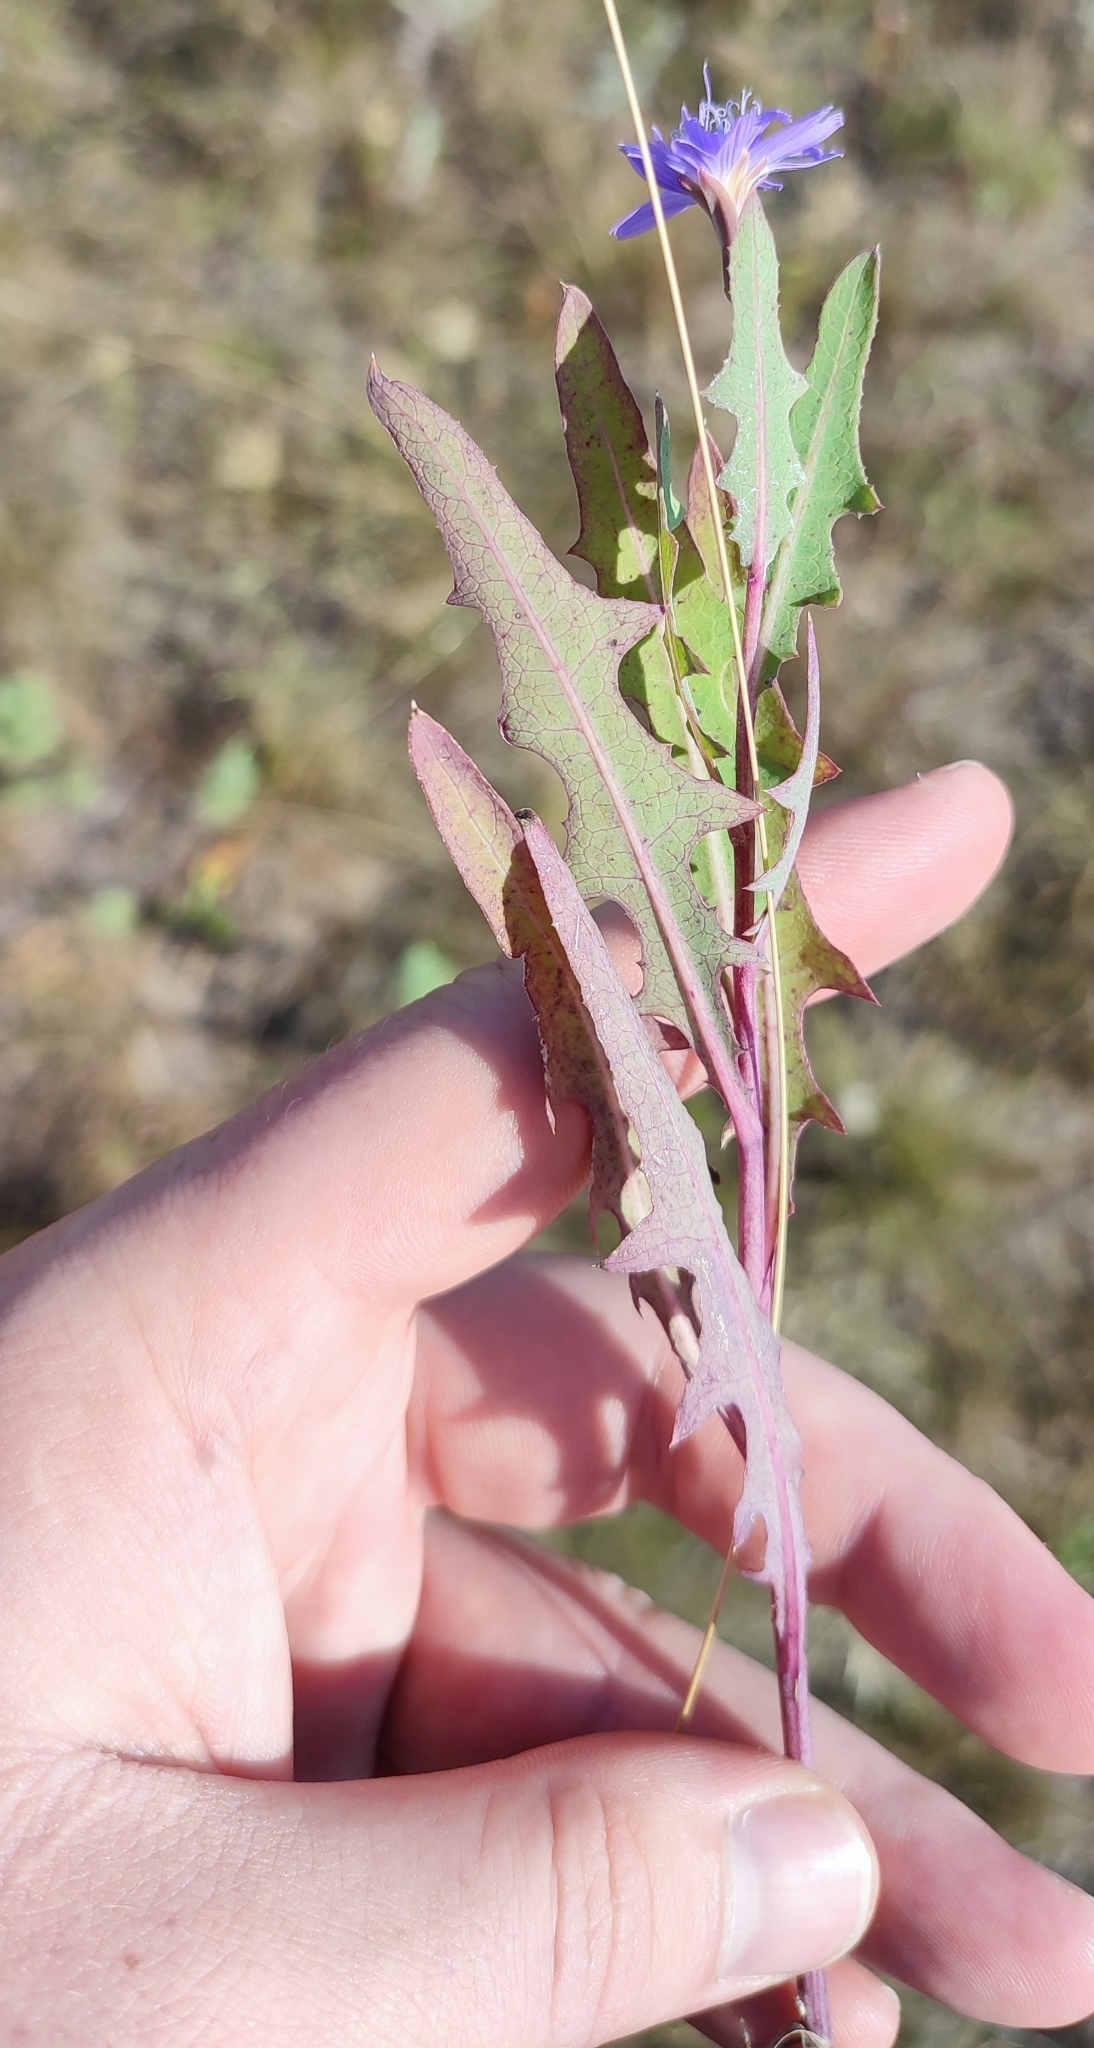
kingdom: Plantae
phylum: Tracheophyta
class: Magnoliopsida
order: Asterales
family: Asteraceae
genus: Lactuca
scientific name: Lactuca tatarica
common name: Blue lettuce
